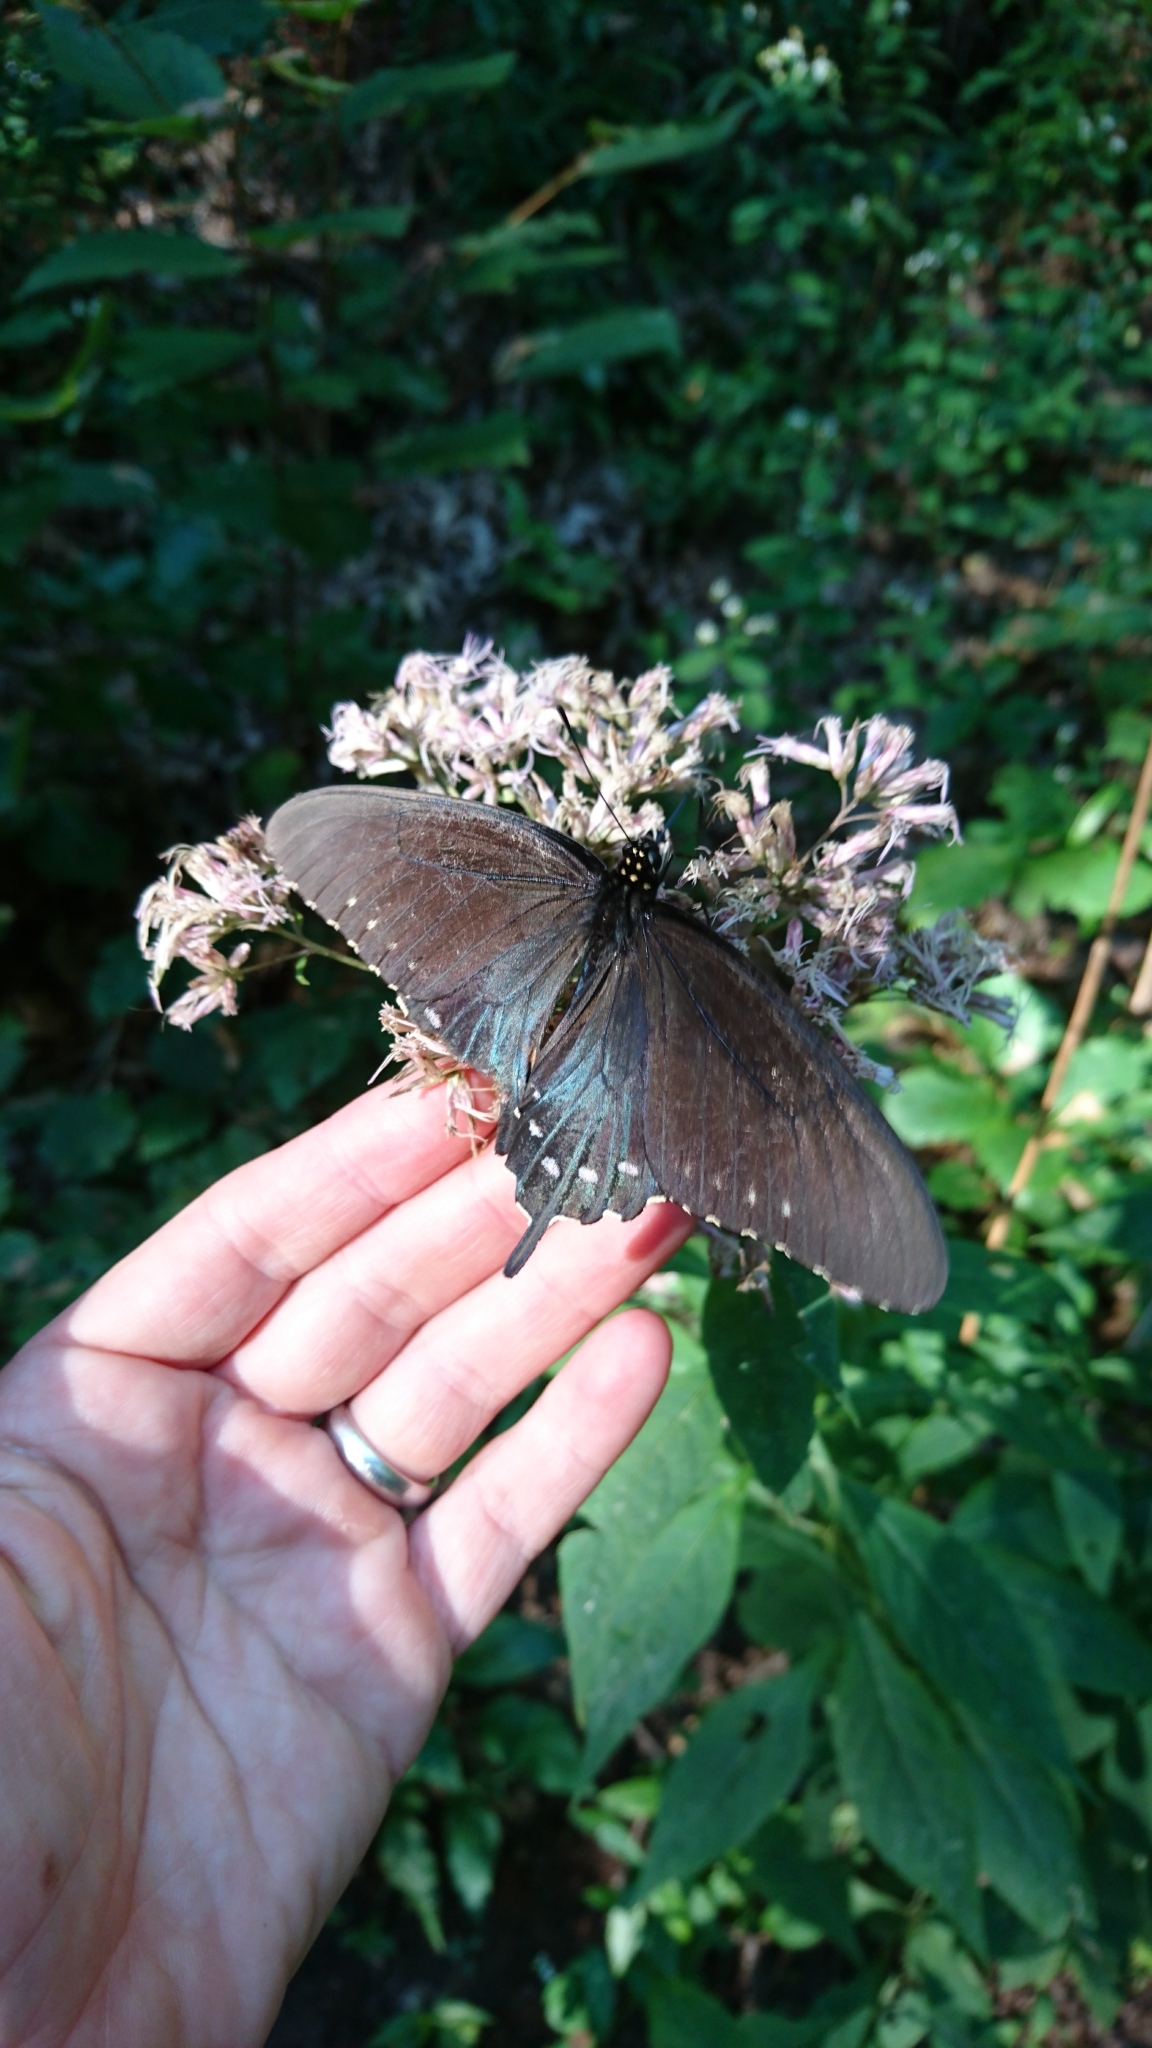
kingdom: Animalia
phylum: Arthropoda
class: Insecta
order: Lepidoptera
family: Papilionidae
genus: Battus
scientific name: Battus philenor
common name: Pipevine swallowtail
